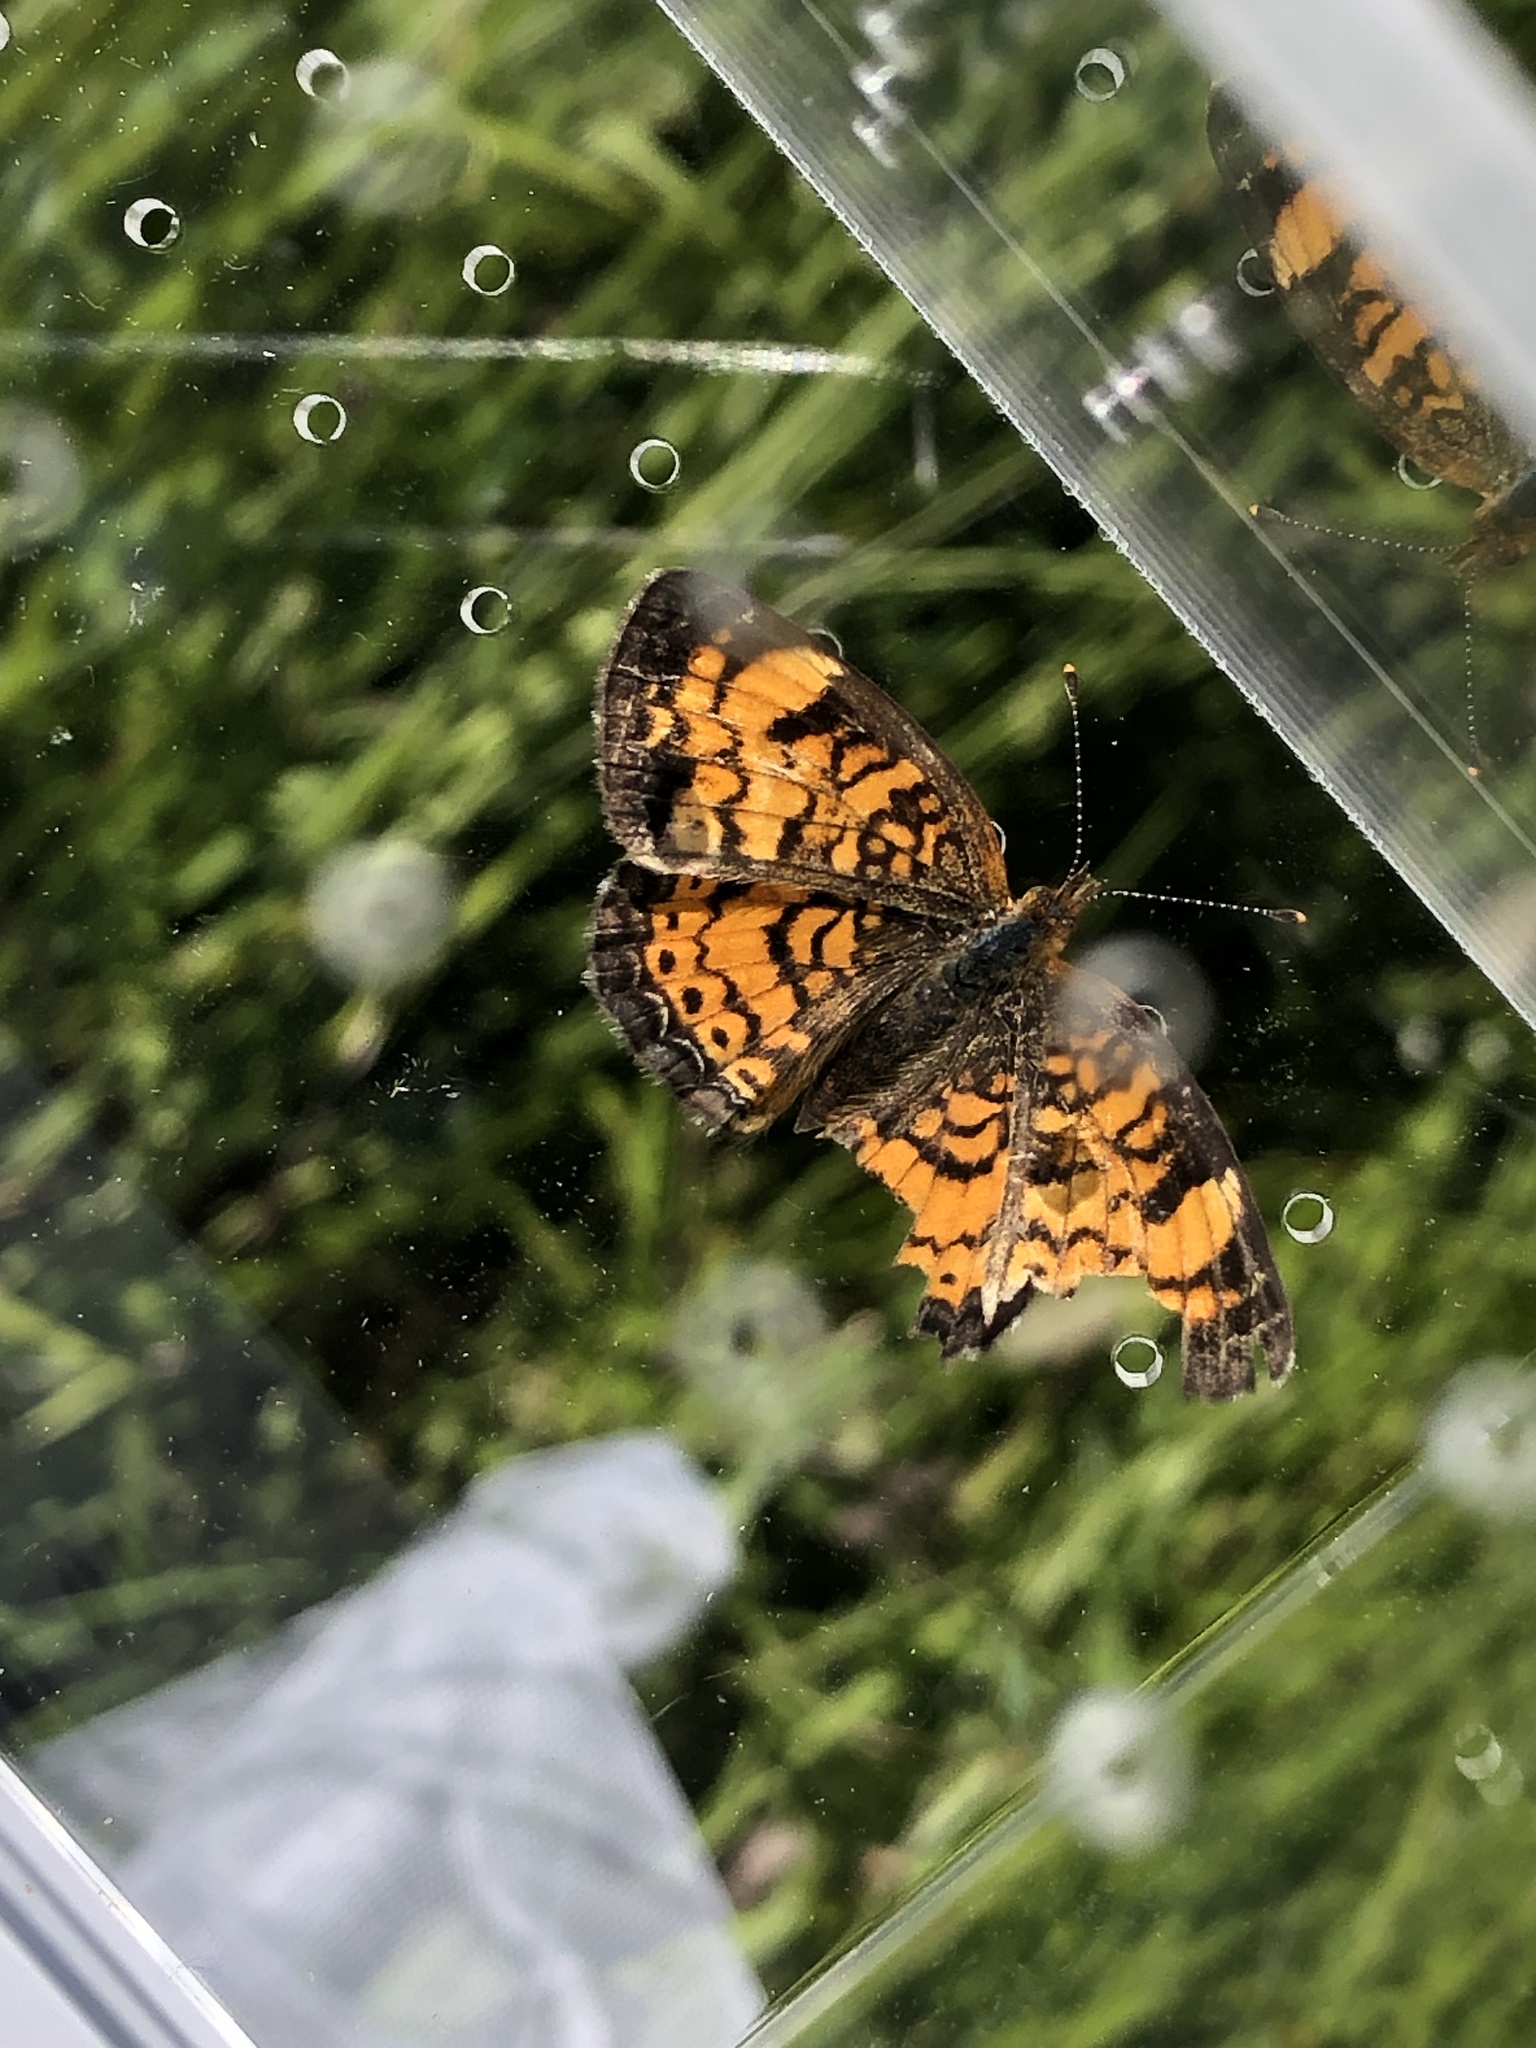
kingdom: Animalia
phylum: Arthropoda
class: Insecta
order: Lepidoptera
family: Nymphalidae
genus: Phyciodes
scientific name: Phyciodes tharos
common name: Pearl crescent
